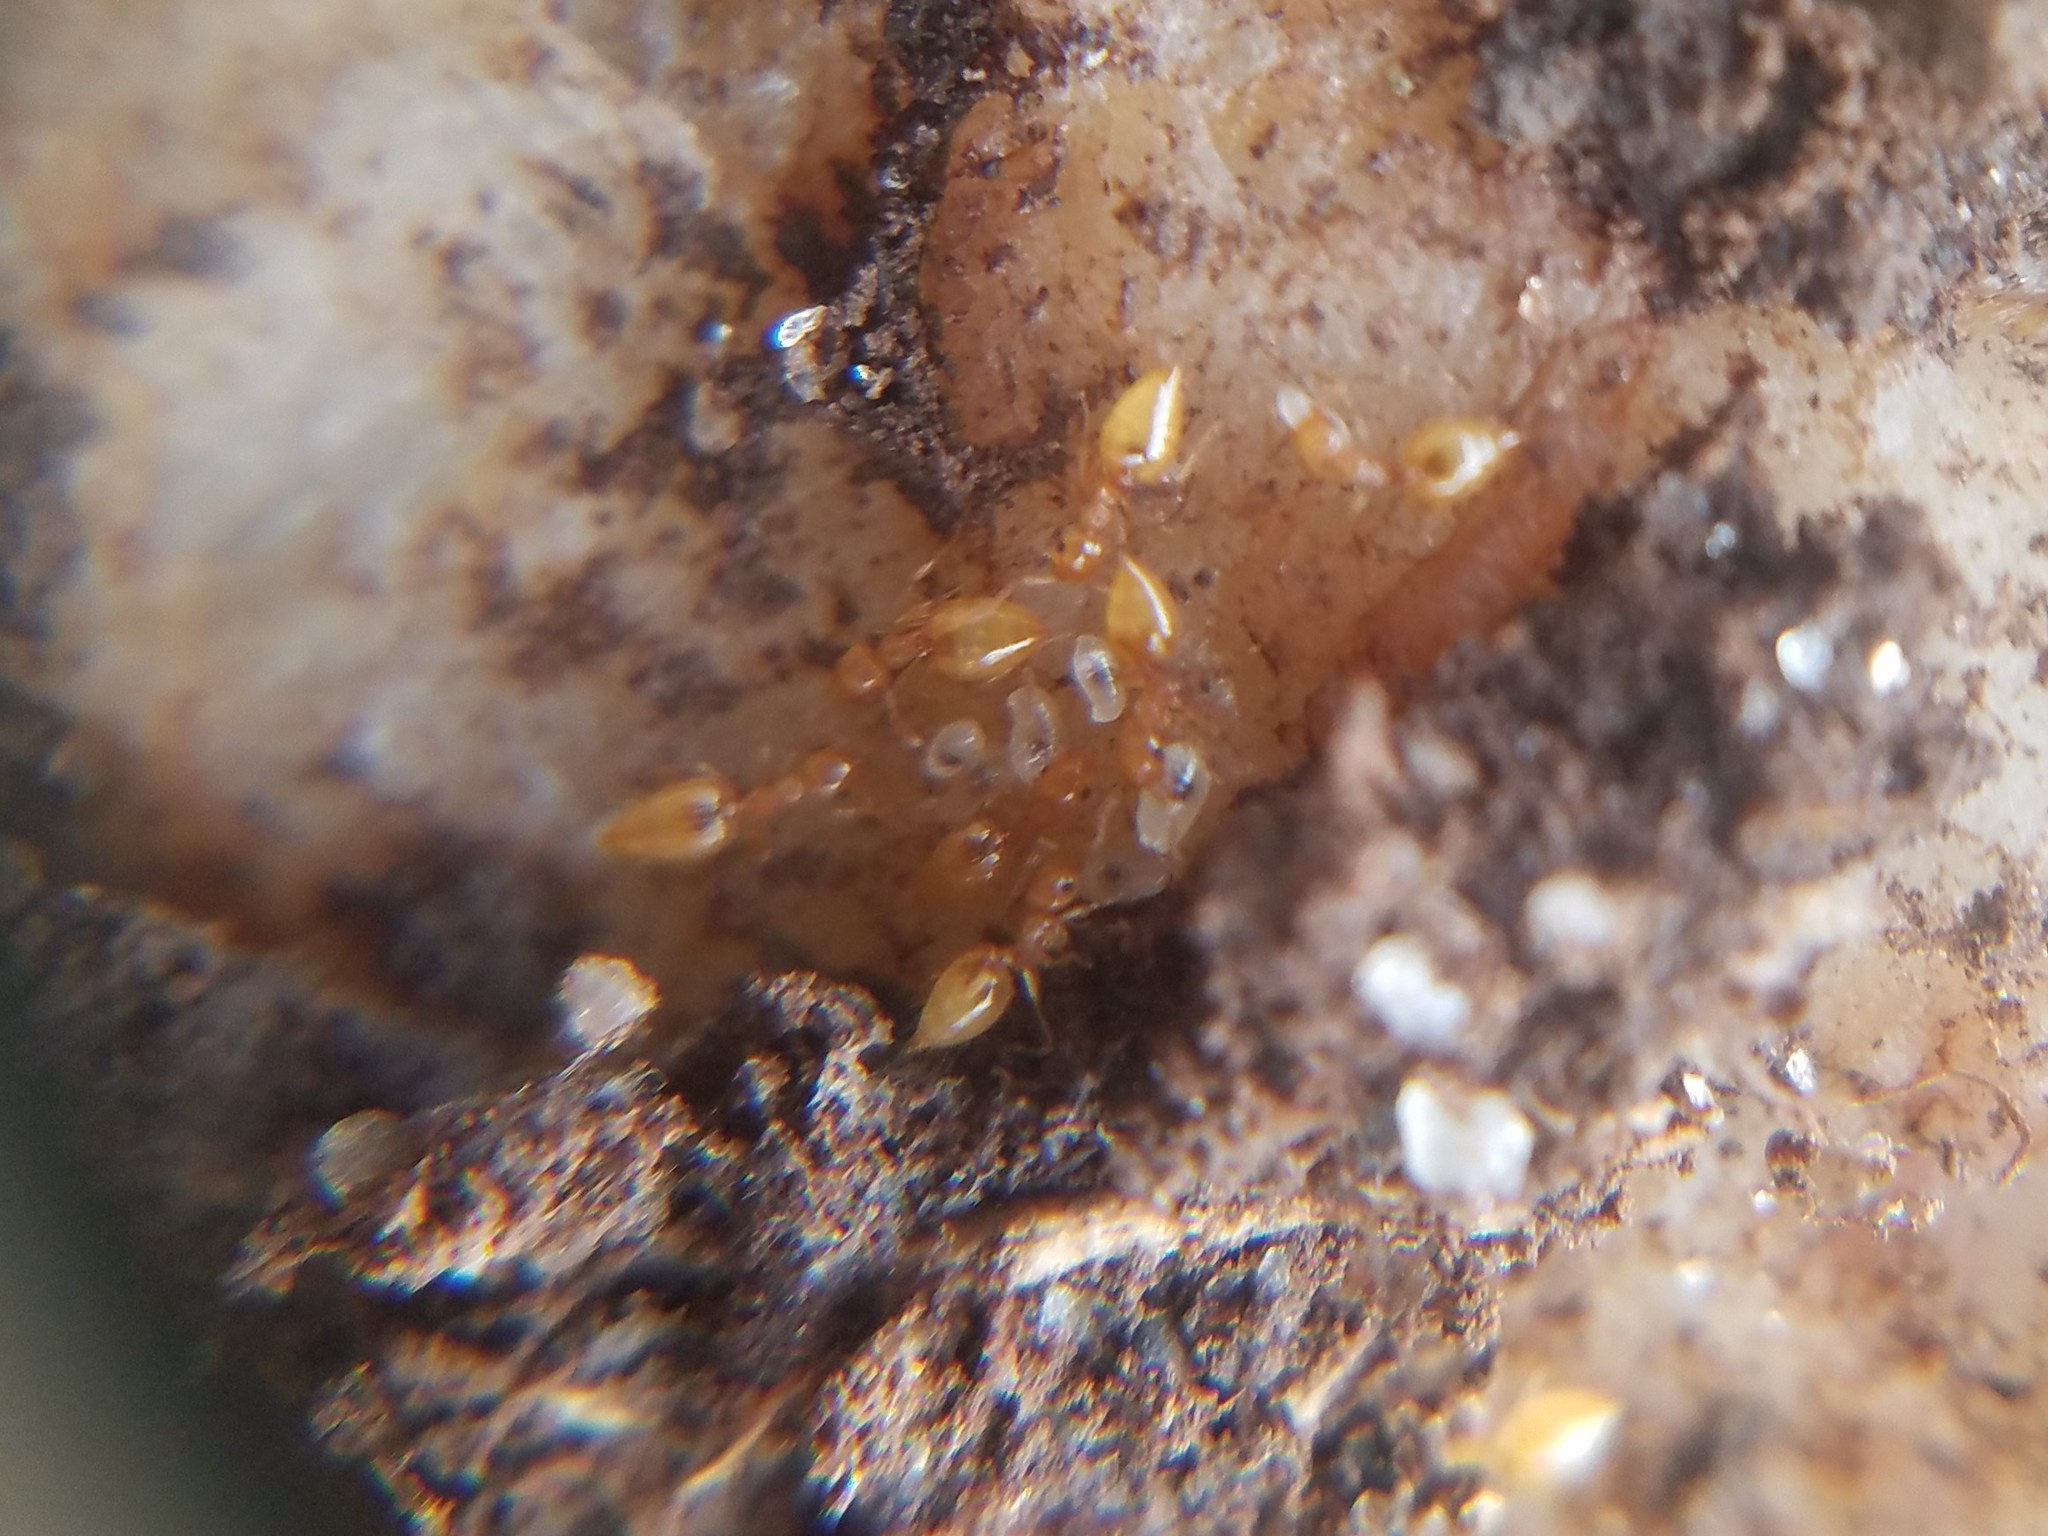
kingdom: Animalia
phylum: Arthropoda
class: Insecta
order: Hymenoptera
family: Formicidae
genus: Crematogaster
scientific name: Crematogaster minutissima
